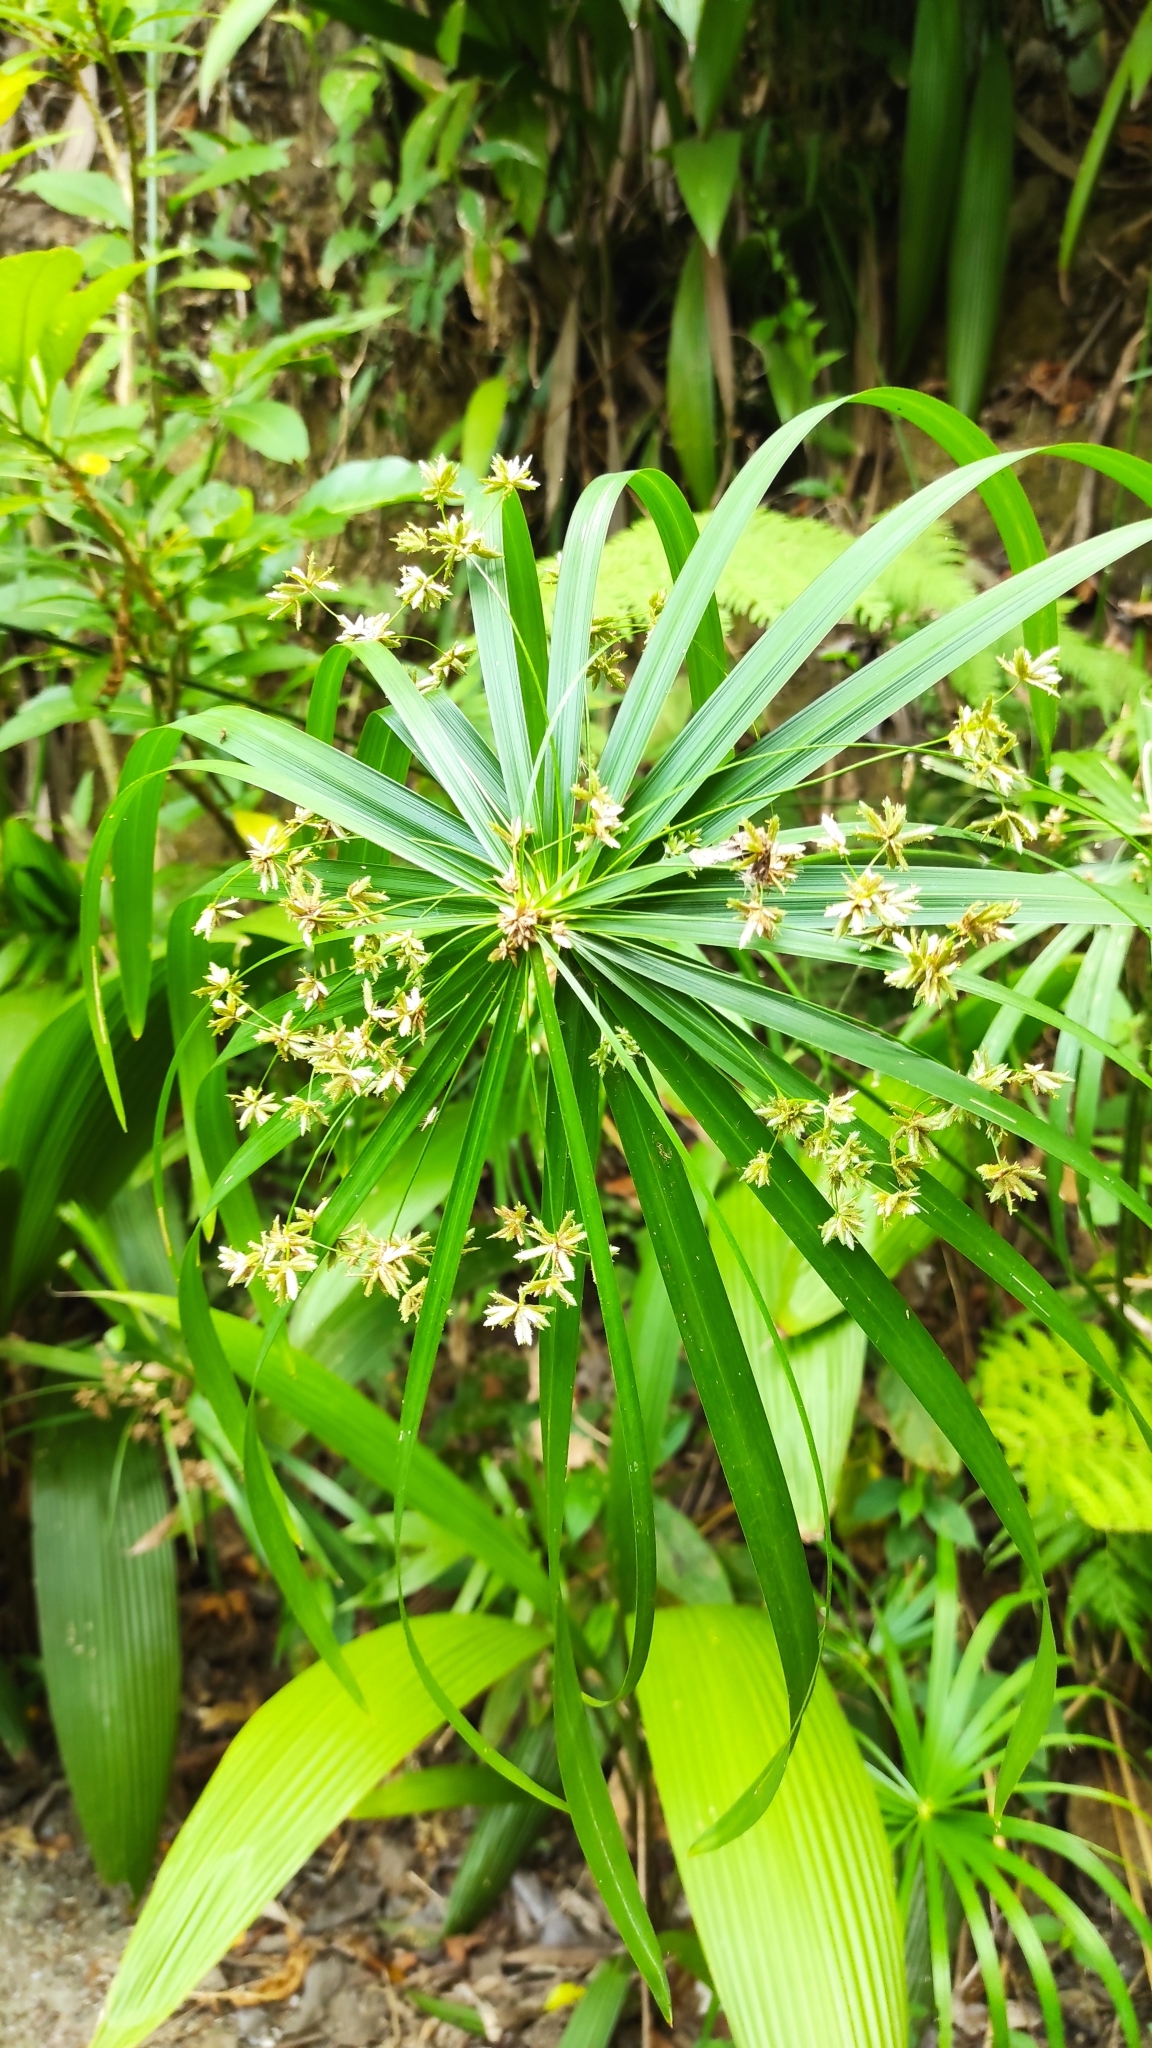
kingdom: Plantae
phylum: Tracheophyta
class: Liliopsida
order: Poales
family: Cyperaceae
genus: Cyperus
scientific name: Cyperus alternifolius
